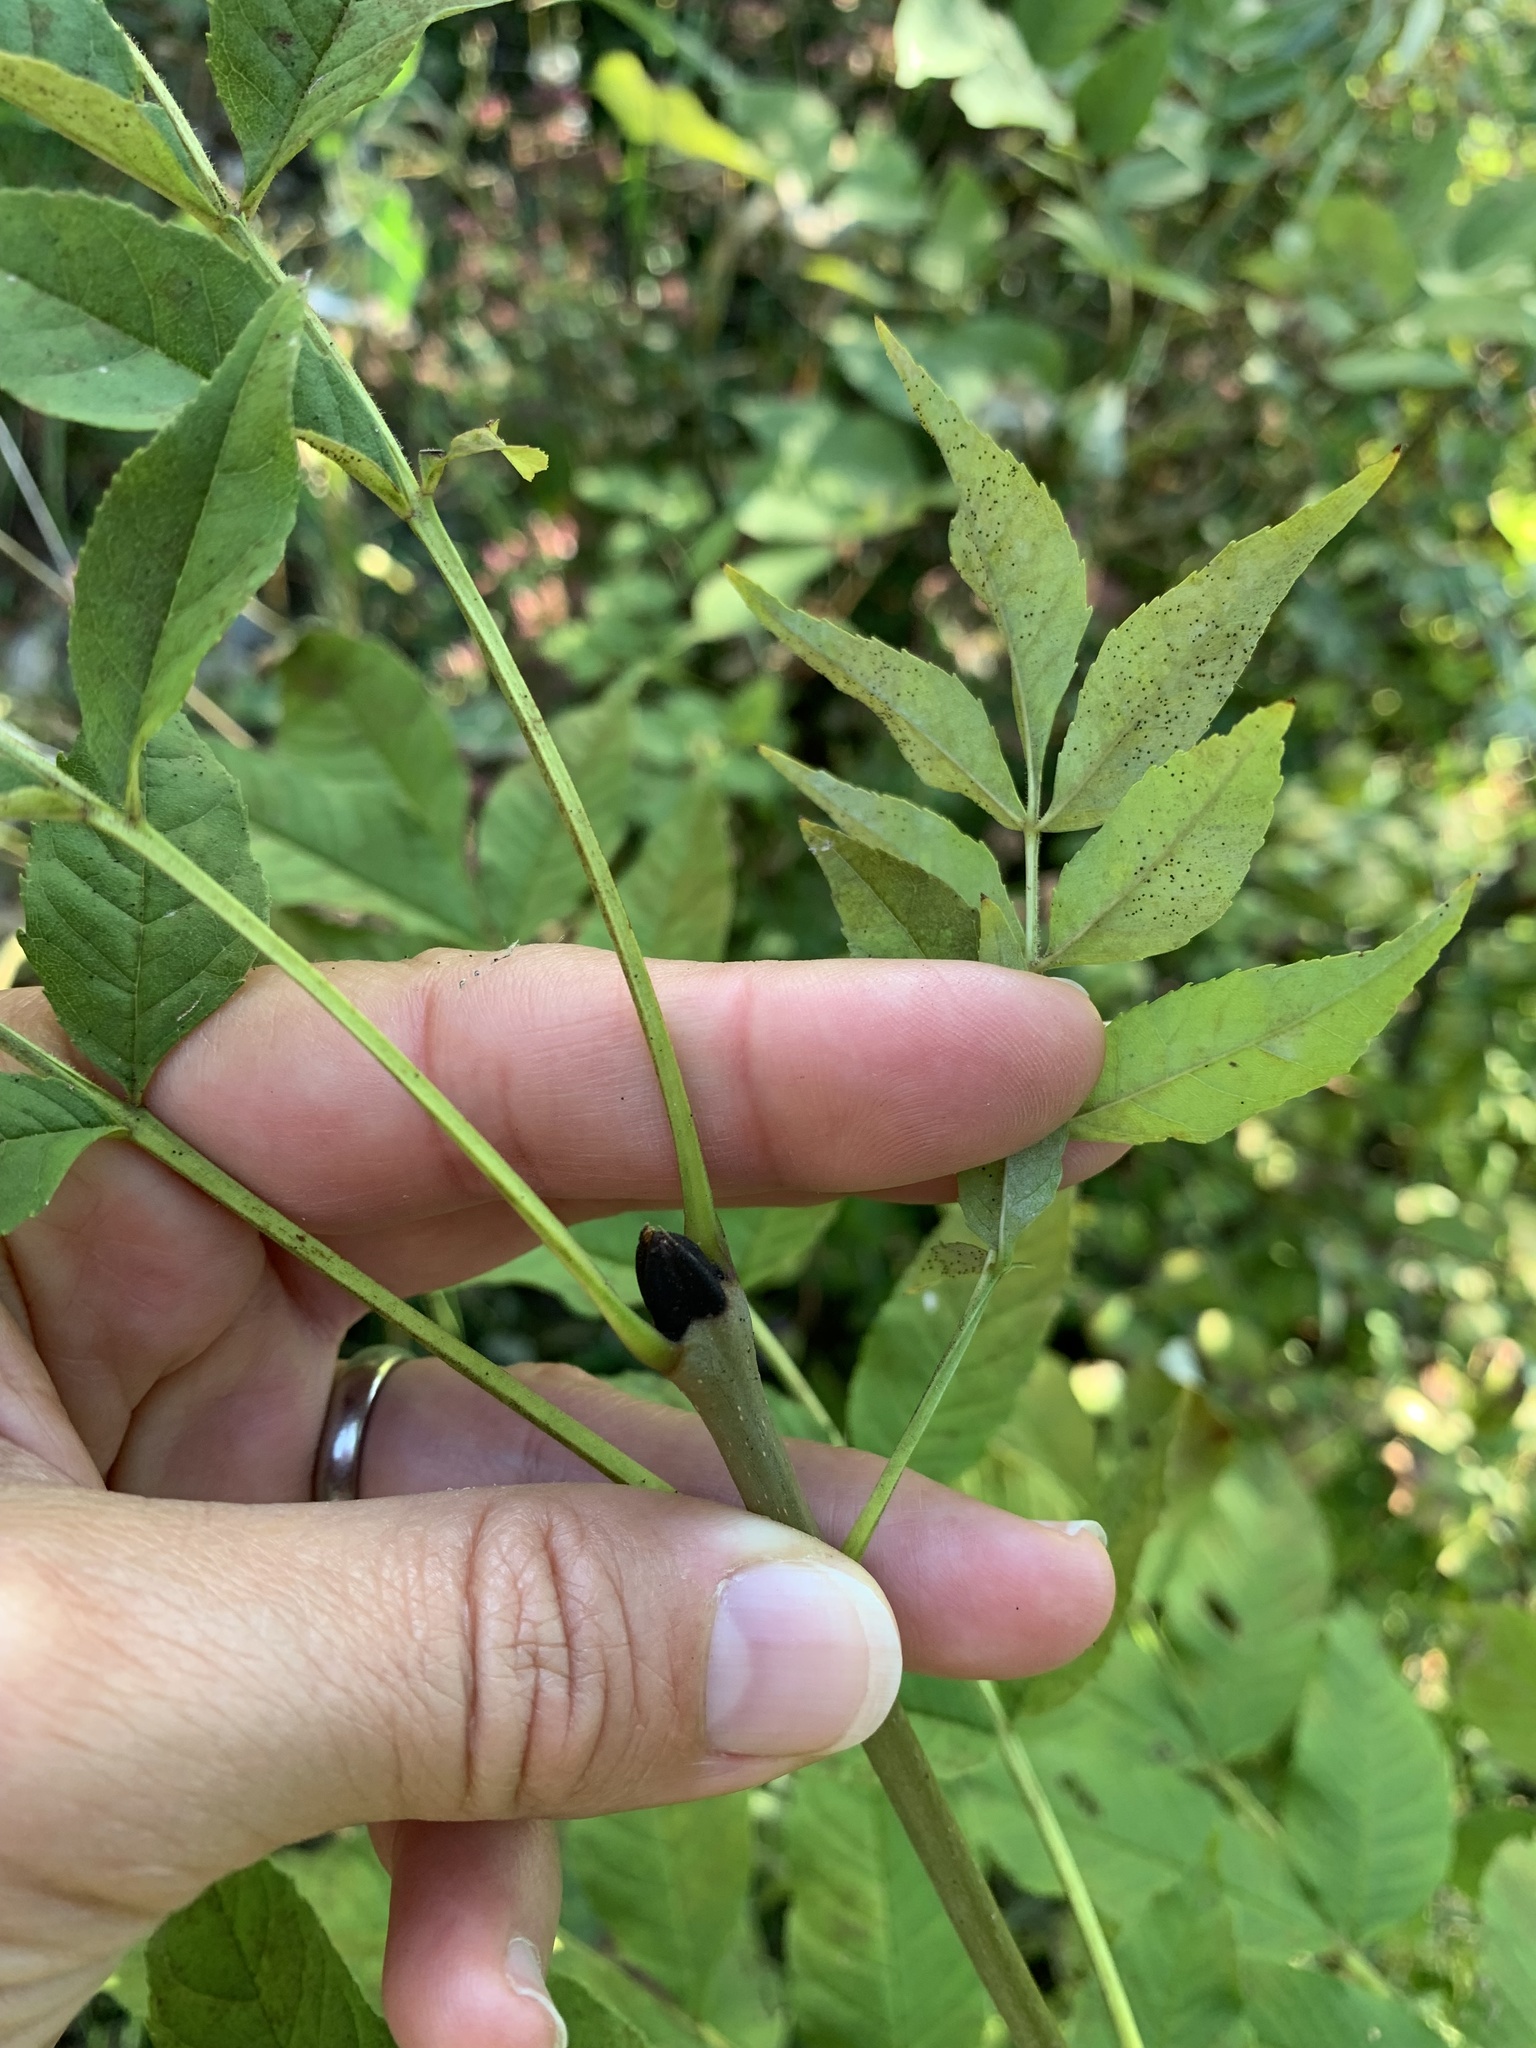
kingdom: Plantae
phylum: Tracheophyta
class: Magnoliopsida
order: Lamiales
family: Oleaceae
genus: Fraxinus
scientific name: Fraxinus excelsior
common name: European ash
